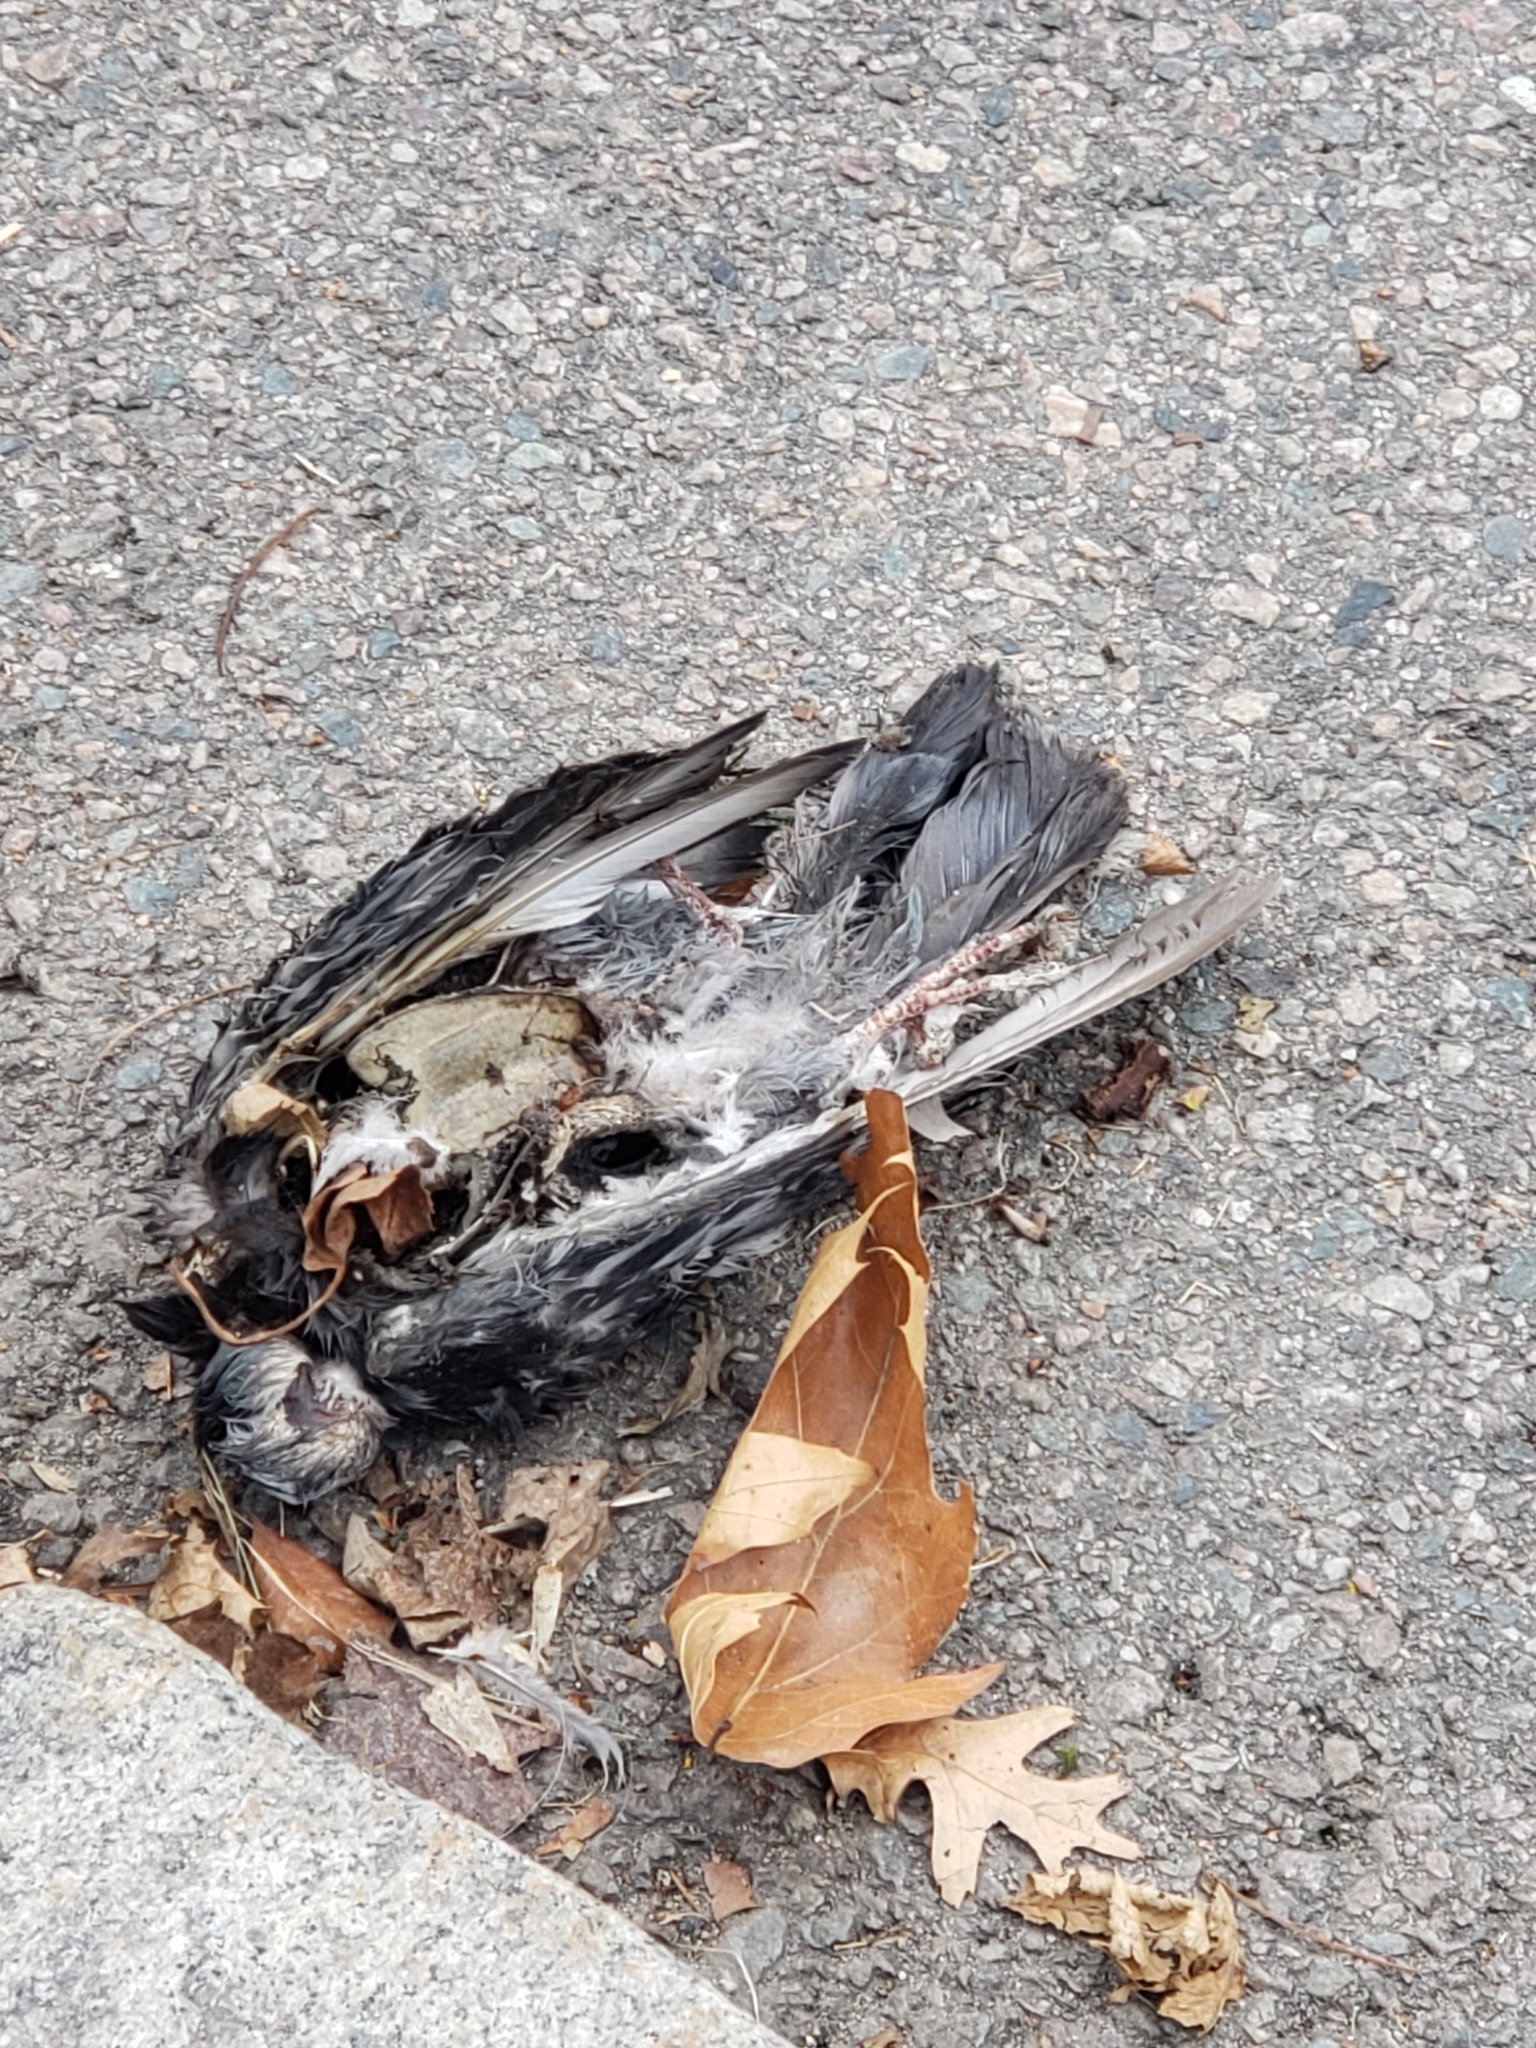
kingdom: Animalia
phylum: Chordata
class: Aves
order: Columbiformes
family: Columbidae
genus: Columba
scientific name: Columba livia
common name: Rock pigeon
